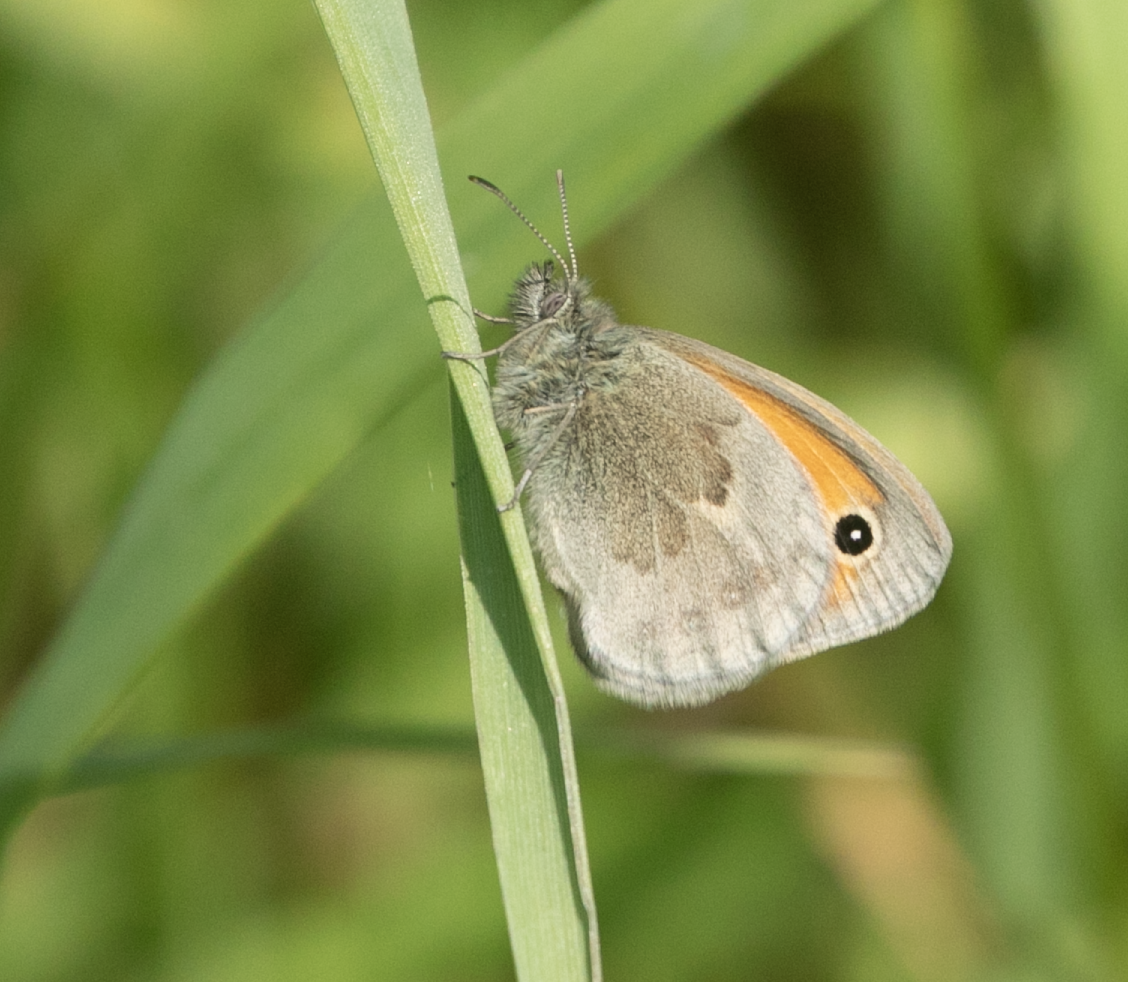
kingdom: Animalia
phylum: Arthropoda
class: Insecta
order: Lepidoptera
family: Nymphalidae
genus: Coenonympha
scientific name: Coenonympha pamphilus
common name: Small heath
